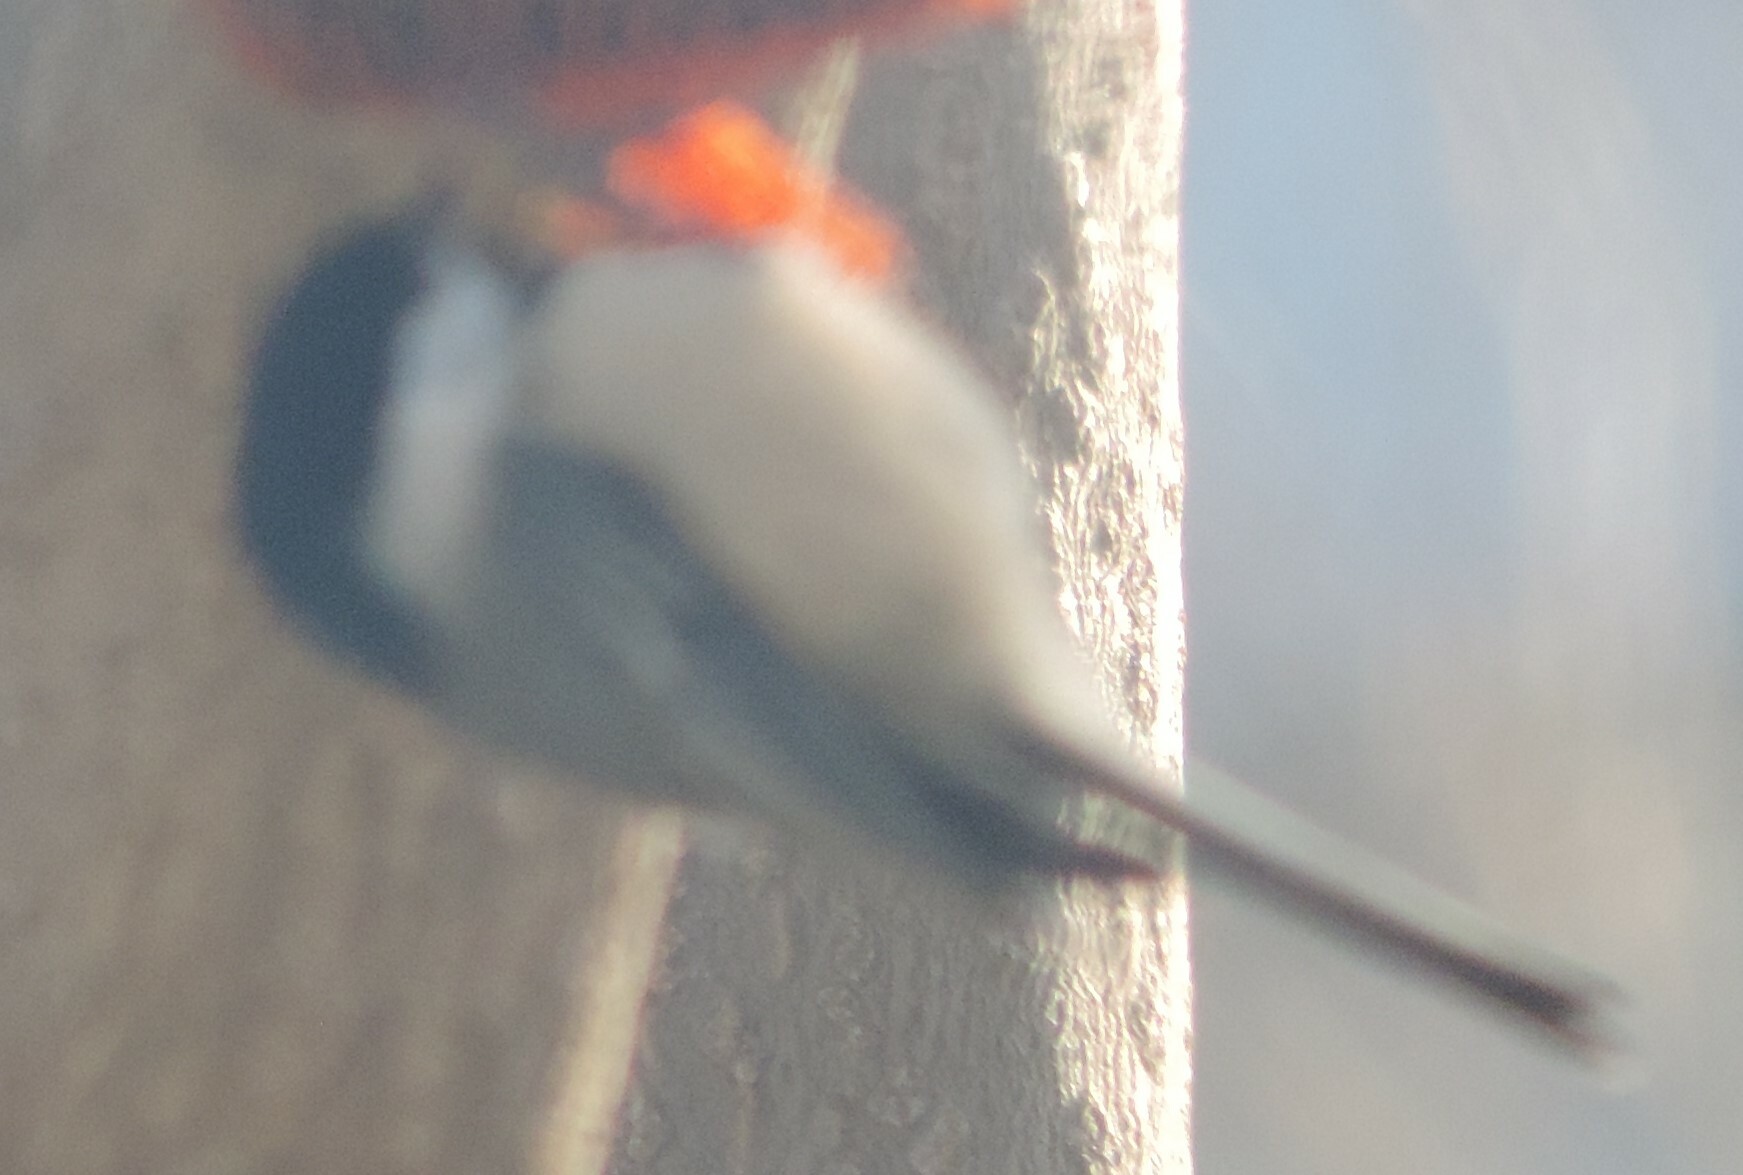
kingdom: Animalia
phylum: Chordata
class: Aves
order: Passeriformes
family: Paridae
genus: Poecile
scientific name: Poecile atricapillus
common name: Black-capped chickadee
